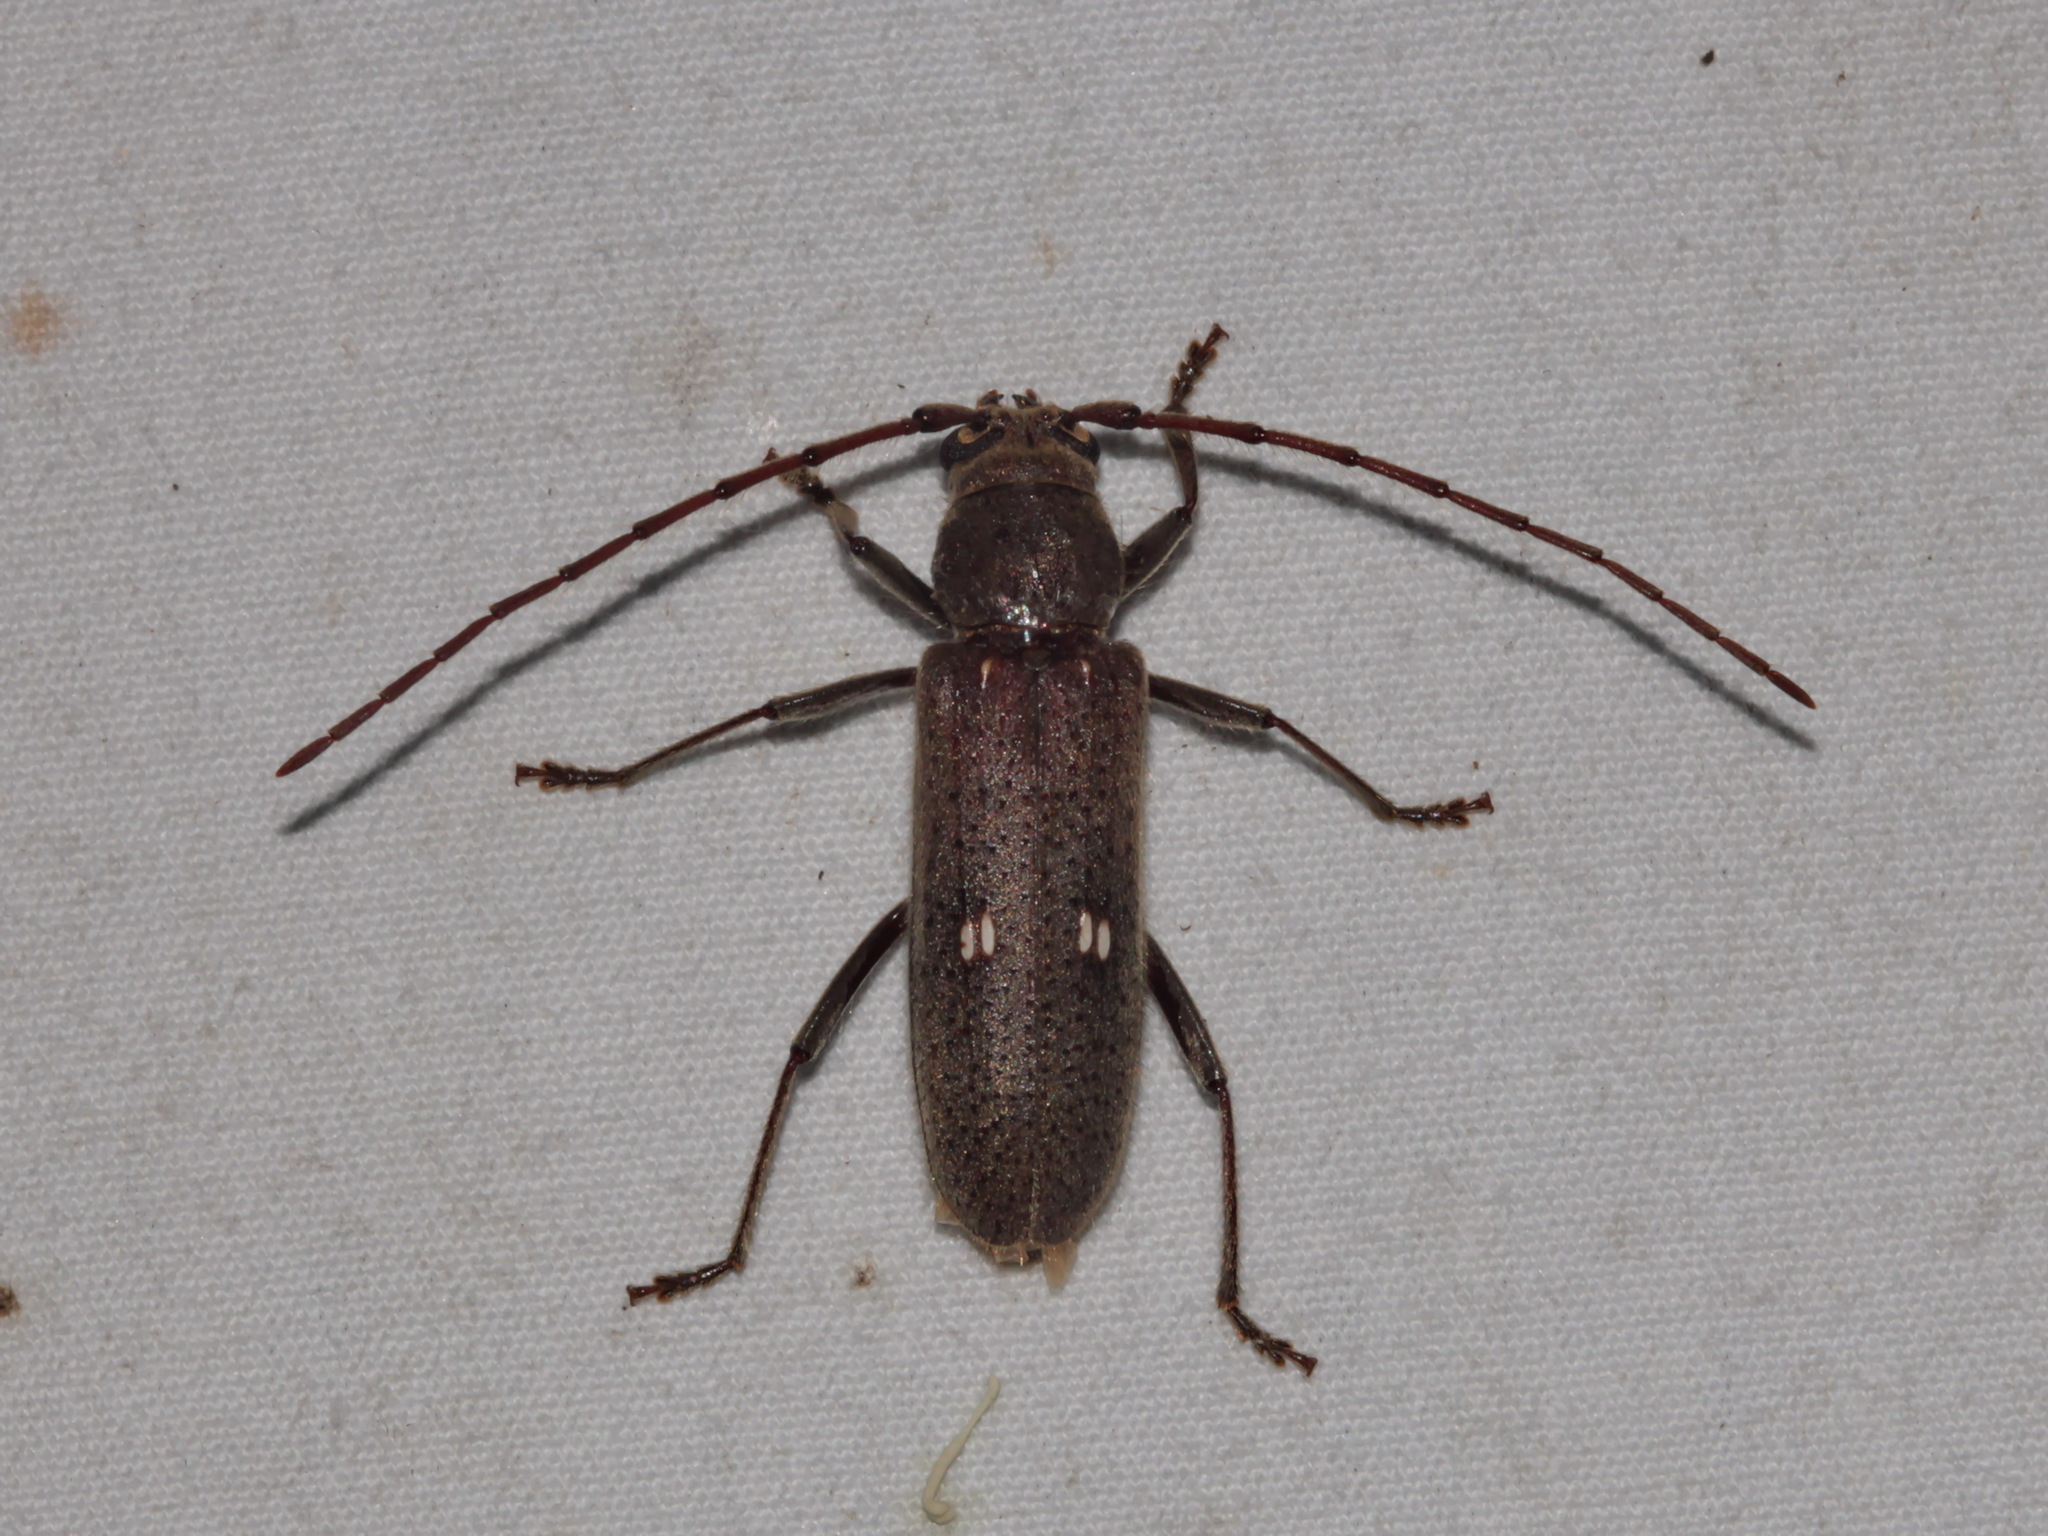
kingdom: Animalia
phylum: Arthropoda
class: Insecta
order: Coleoptera
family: Cerambycidae
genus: Gnatholea
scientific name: Gnatholea eburifera
